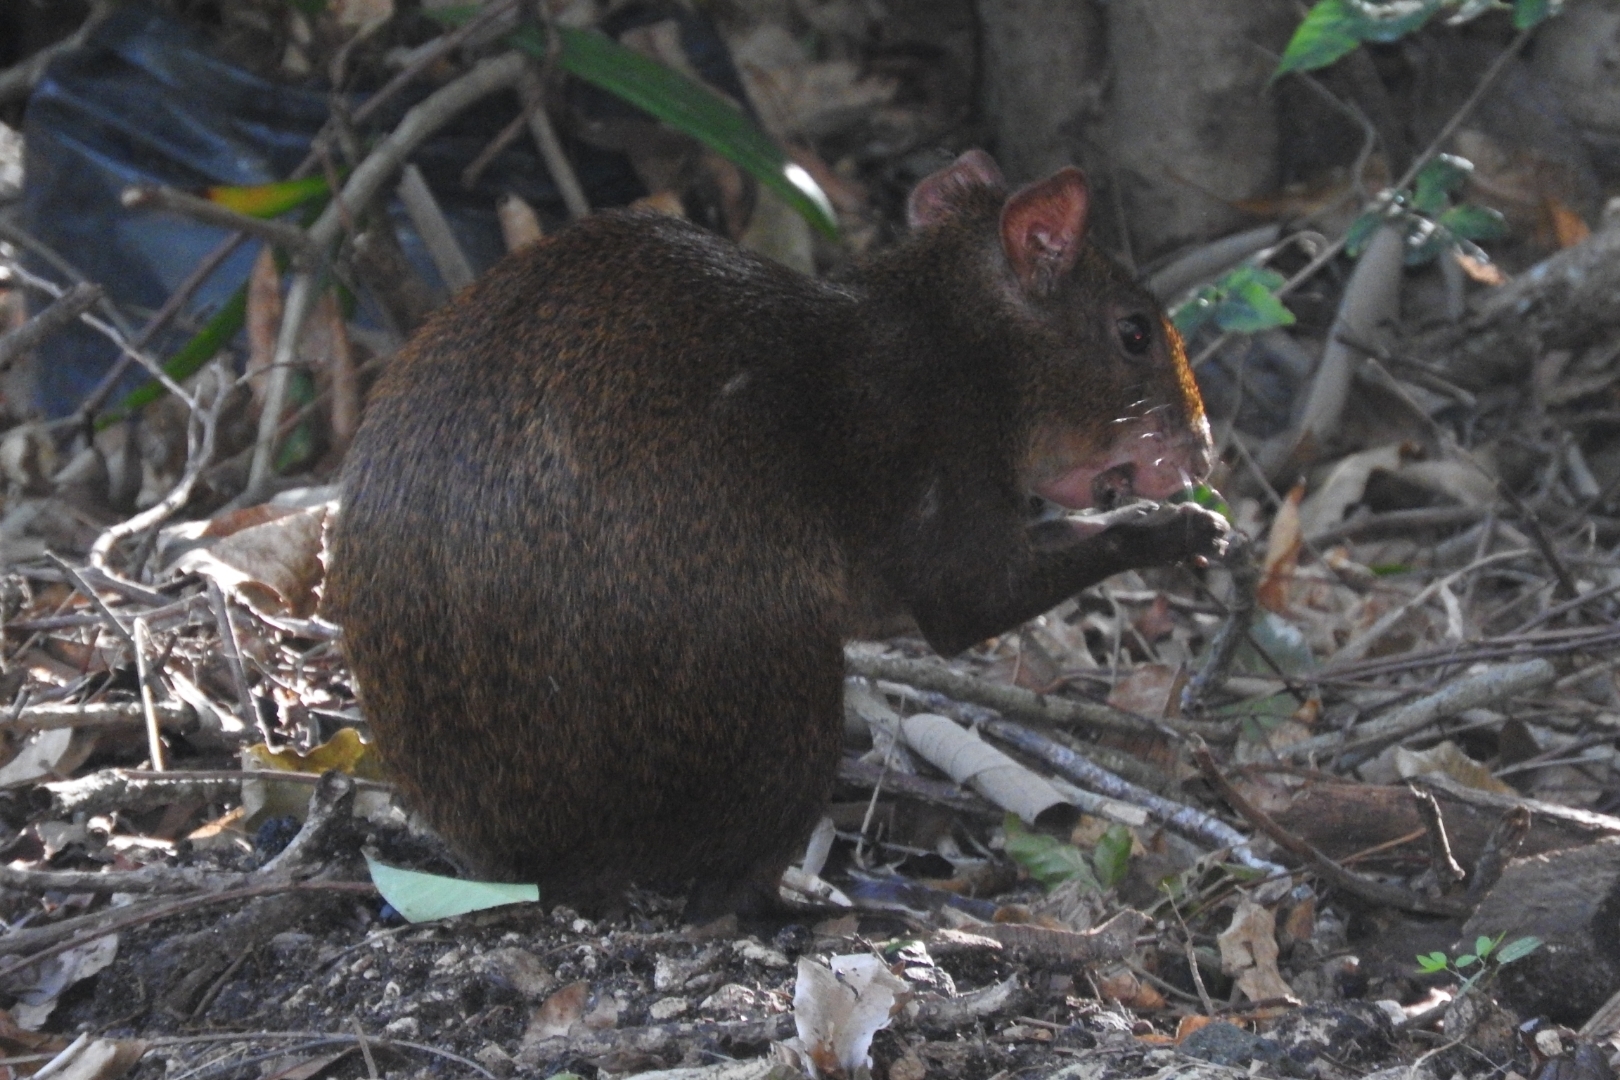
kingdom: Animalia
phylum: Chordata
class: Mammalia
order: Rodentia
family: Dasyproctidae
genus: Dasyprocta
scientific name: Dasyprocta punctata
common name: Central american agouti
